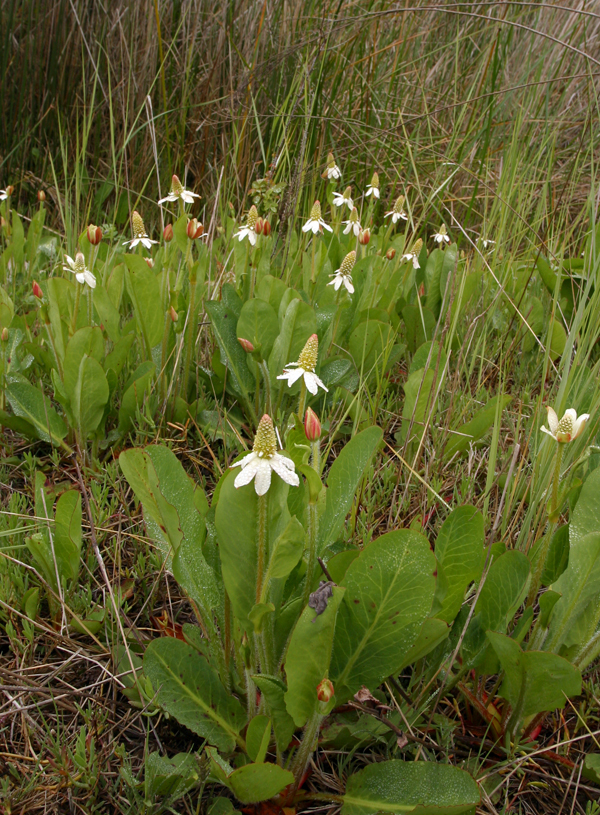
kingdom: Plantae
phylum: Tracheophyta
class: Magnoliopsida
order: Piperales
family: Saururaceae
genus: Anemopsis
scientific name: Anemopsis californica
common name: Apache-beads
